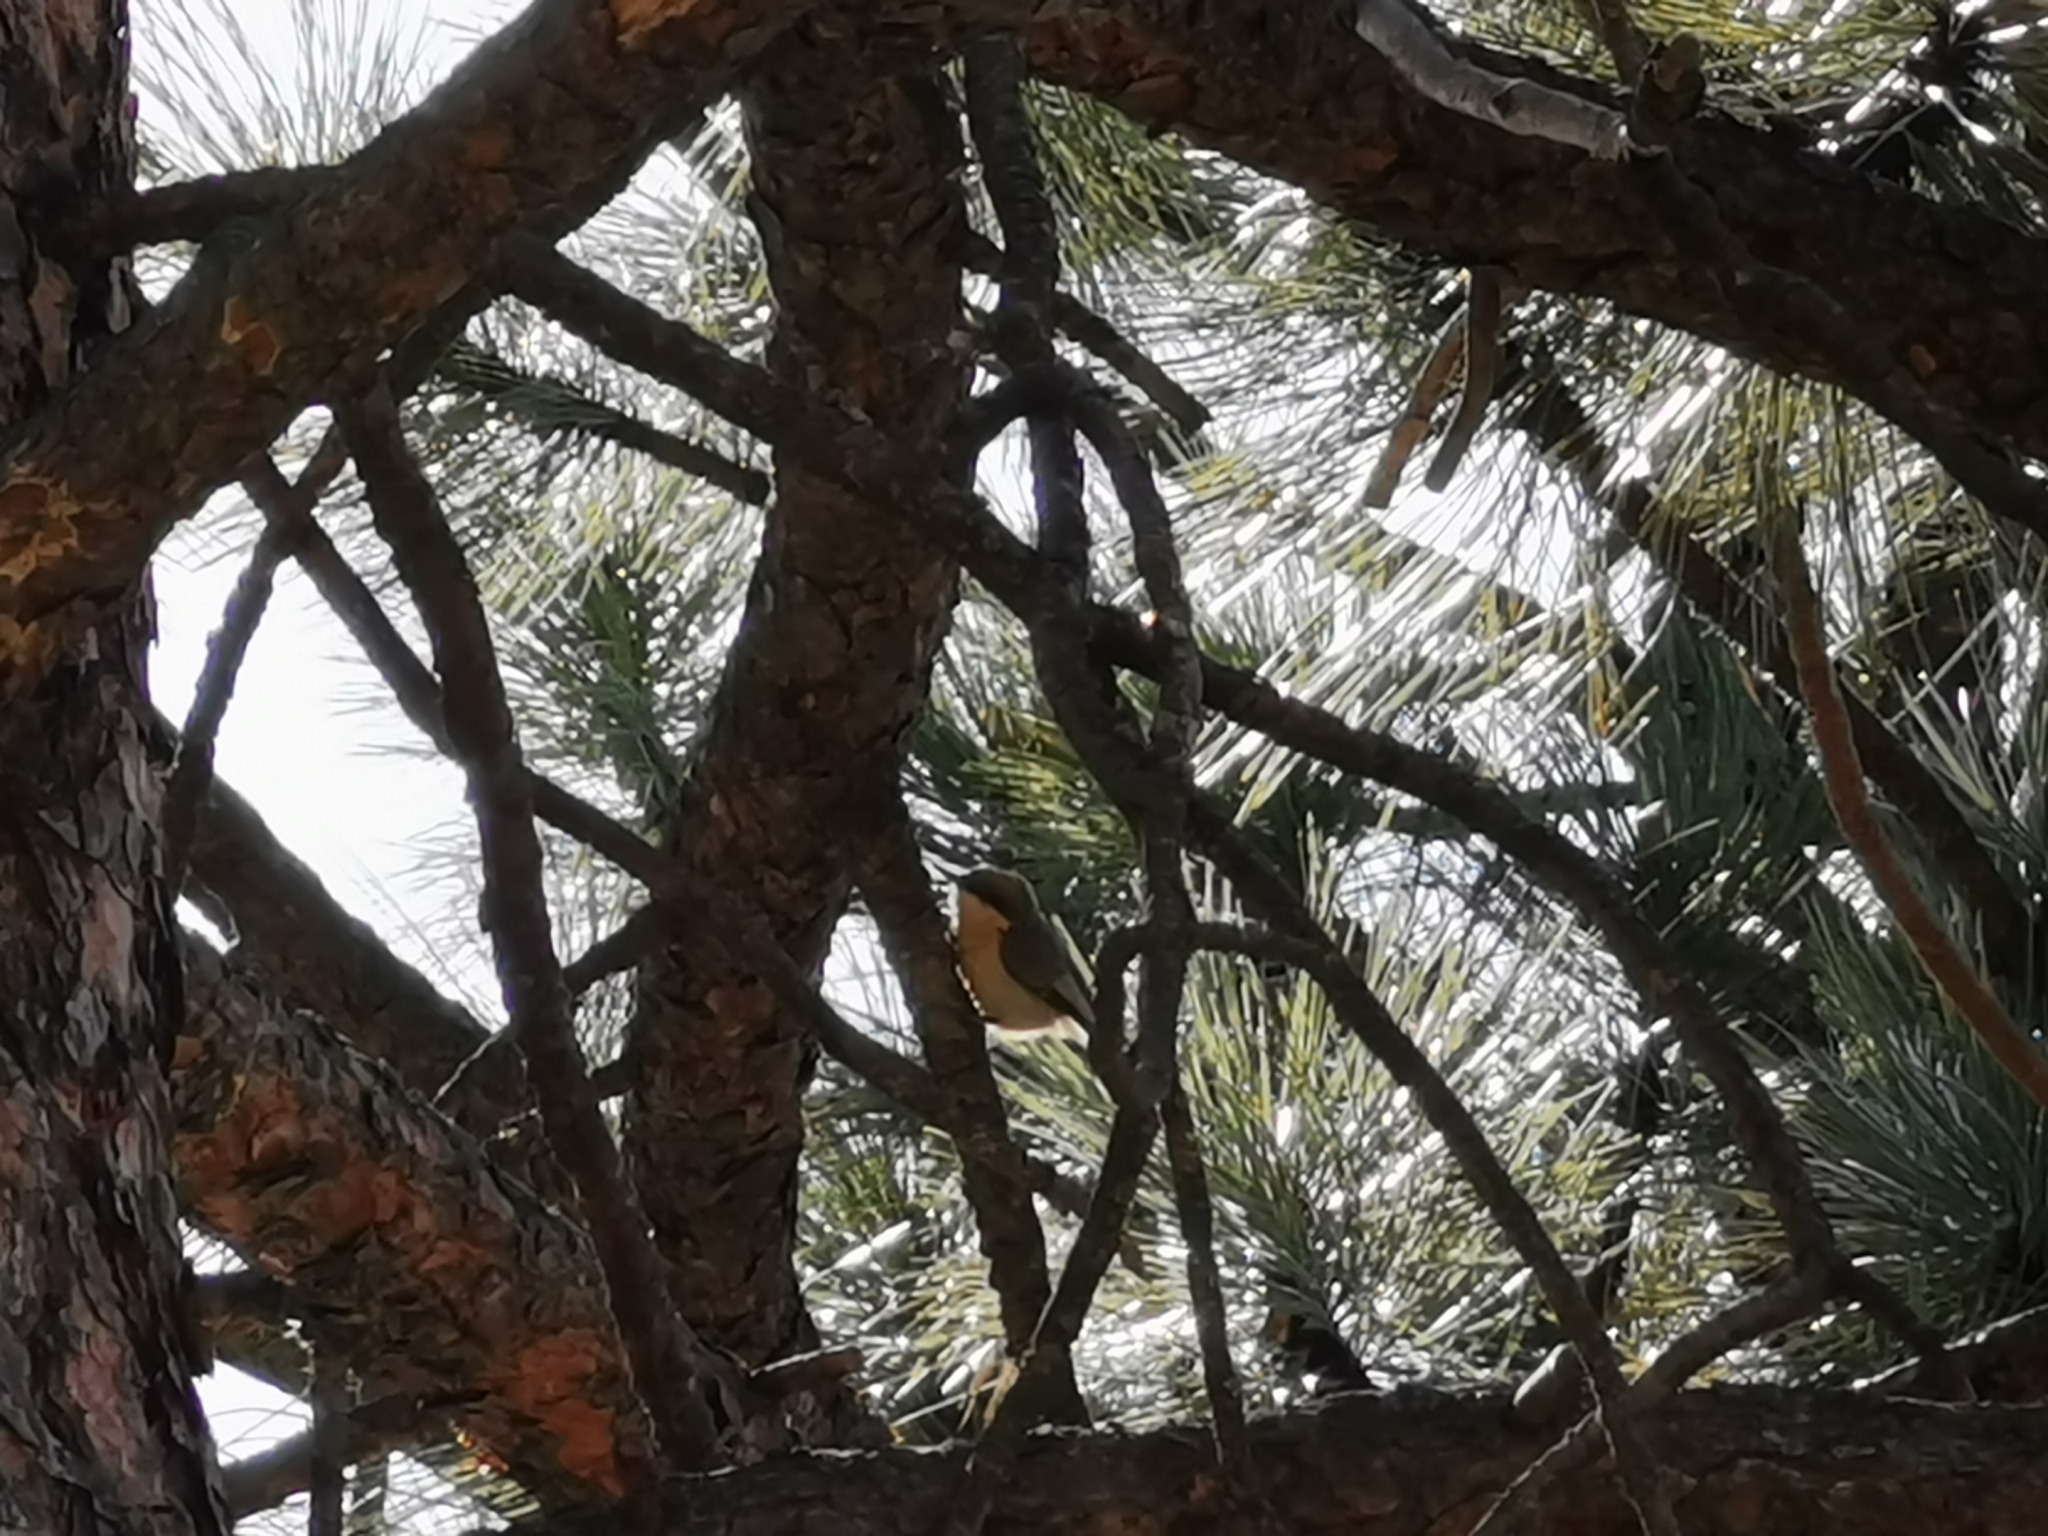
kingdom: Animalia
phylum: Chordata
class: Aves
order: Passeriformes
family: Sittidae
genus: Sitta
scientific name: Sitta pygmaea
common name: Pygmy nuthatch
